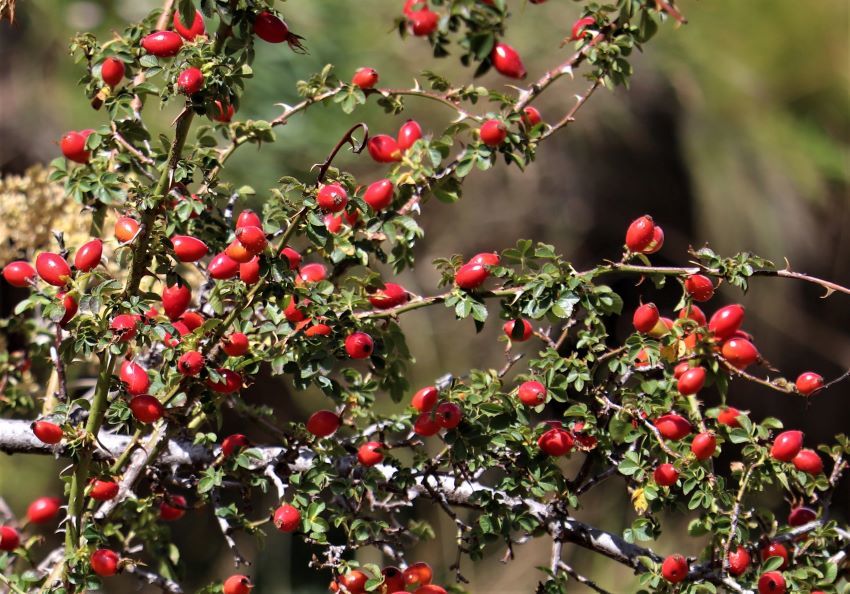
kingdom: Plantae
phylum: Tracheophyta
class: Magnoliopsida
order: Rosales
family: Rosaceae
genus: Rosa
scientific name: Rosa rubiginosa
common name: Sweet-briar
